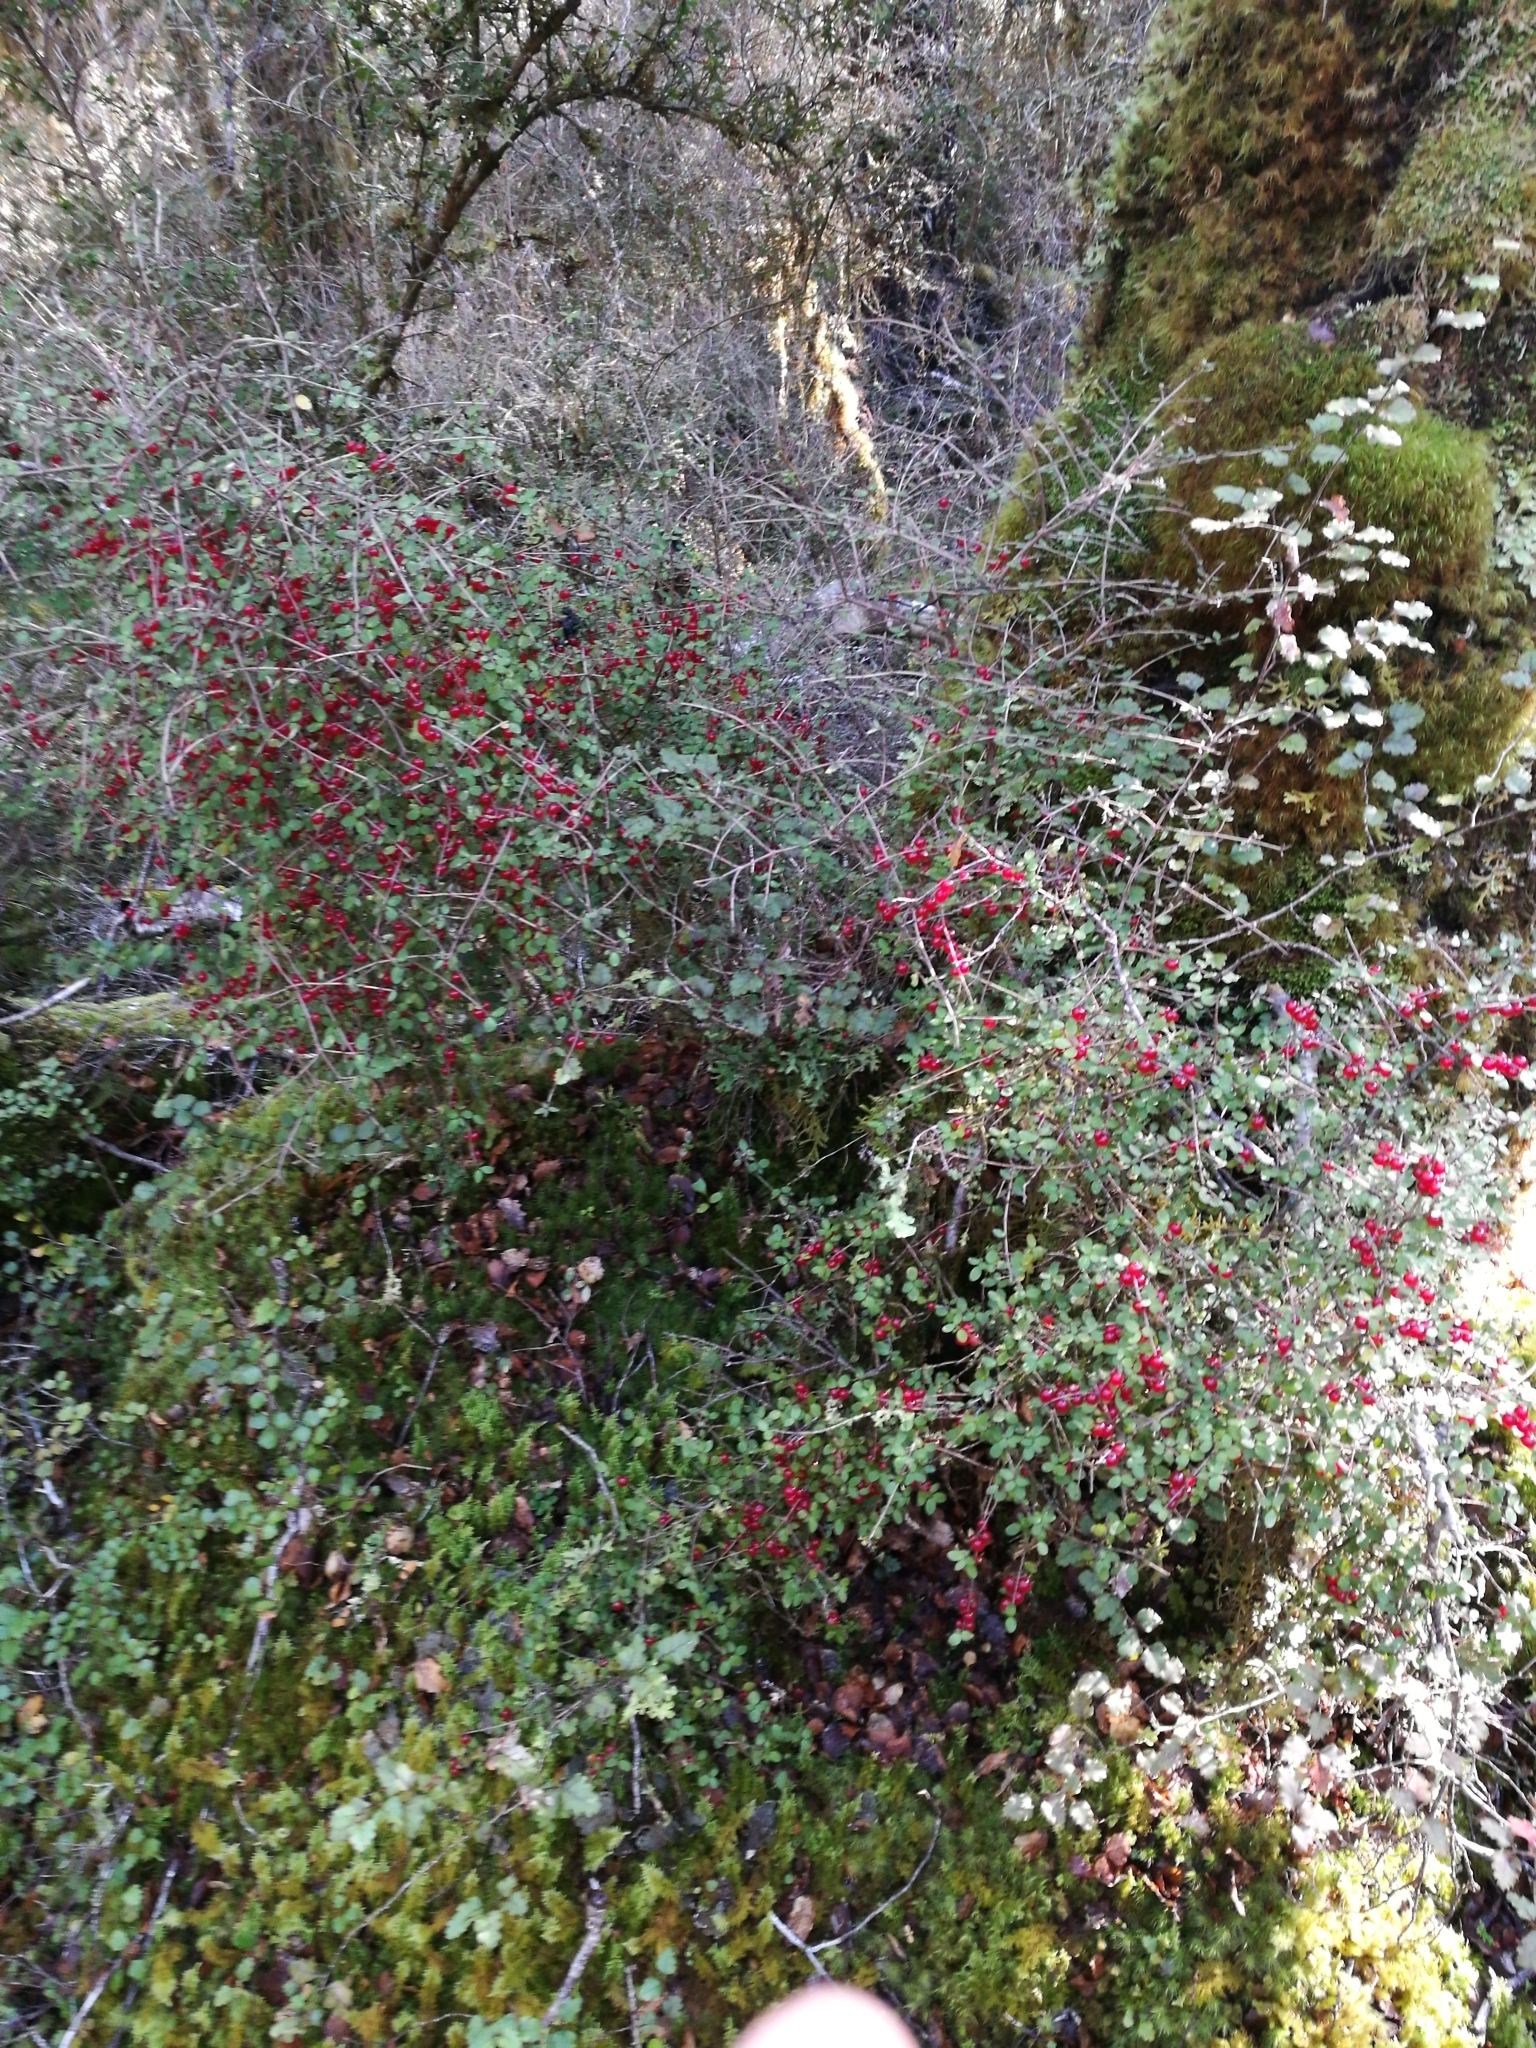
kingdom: Plantae
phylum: Tracheophyta
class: Magnoliopsida
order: Gentianales
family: Rubiaceae
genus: Coprosma
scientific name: Coprosma rhamnoides
